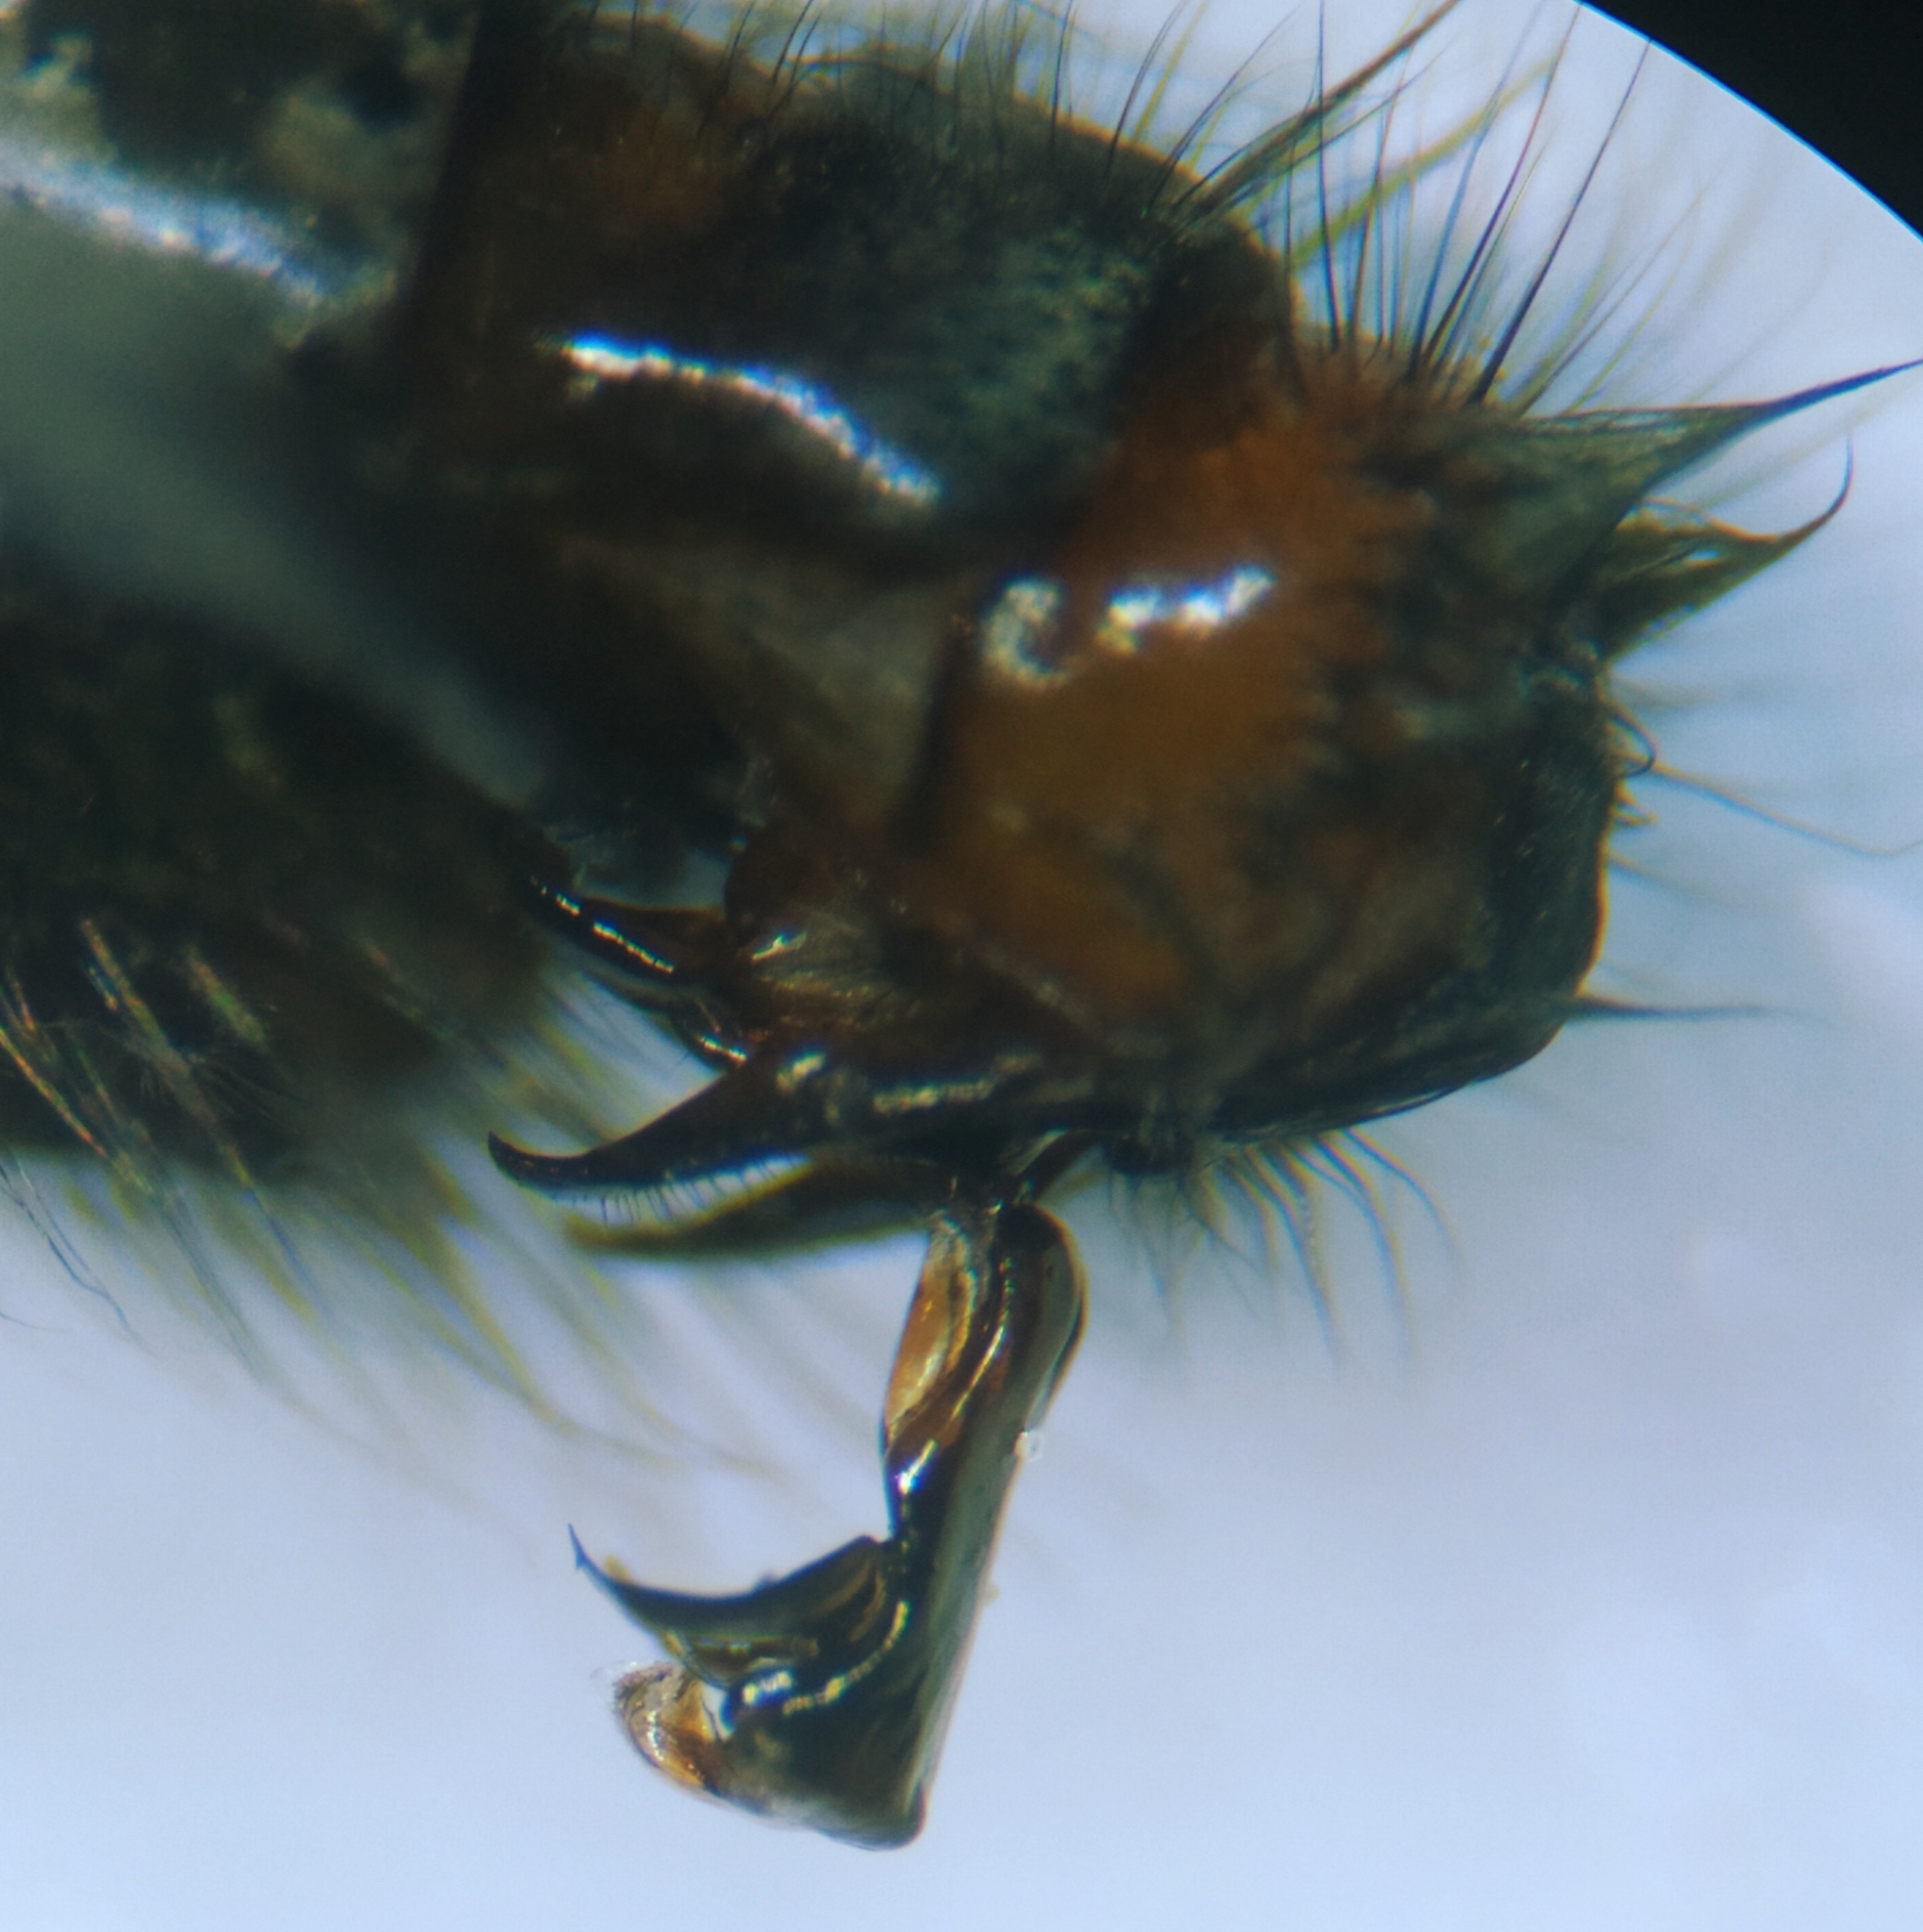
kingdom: Animalia
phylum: Arthropoda
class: Insecta
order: Diptera
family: Sarcophagidae
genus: Sarcophaga
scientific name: Sarcophaga africa
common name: Flesh fly
